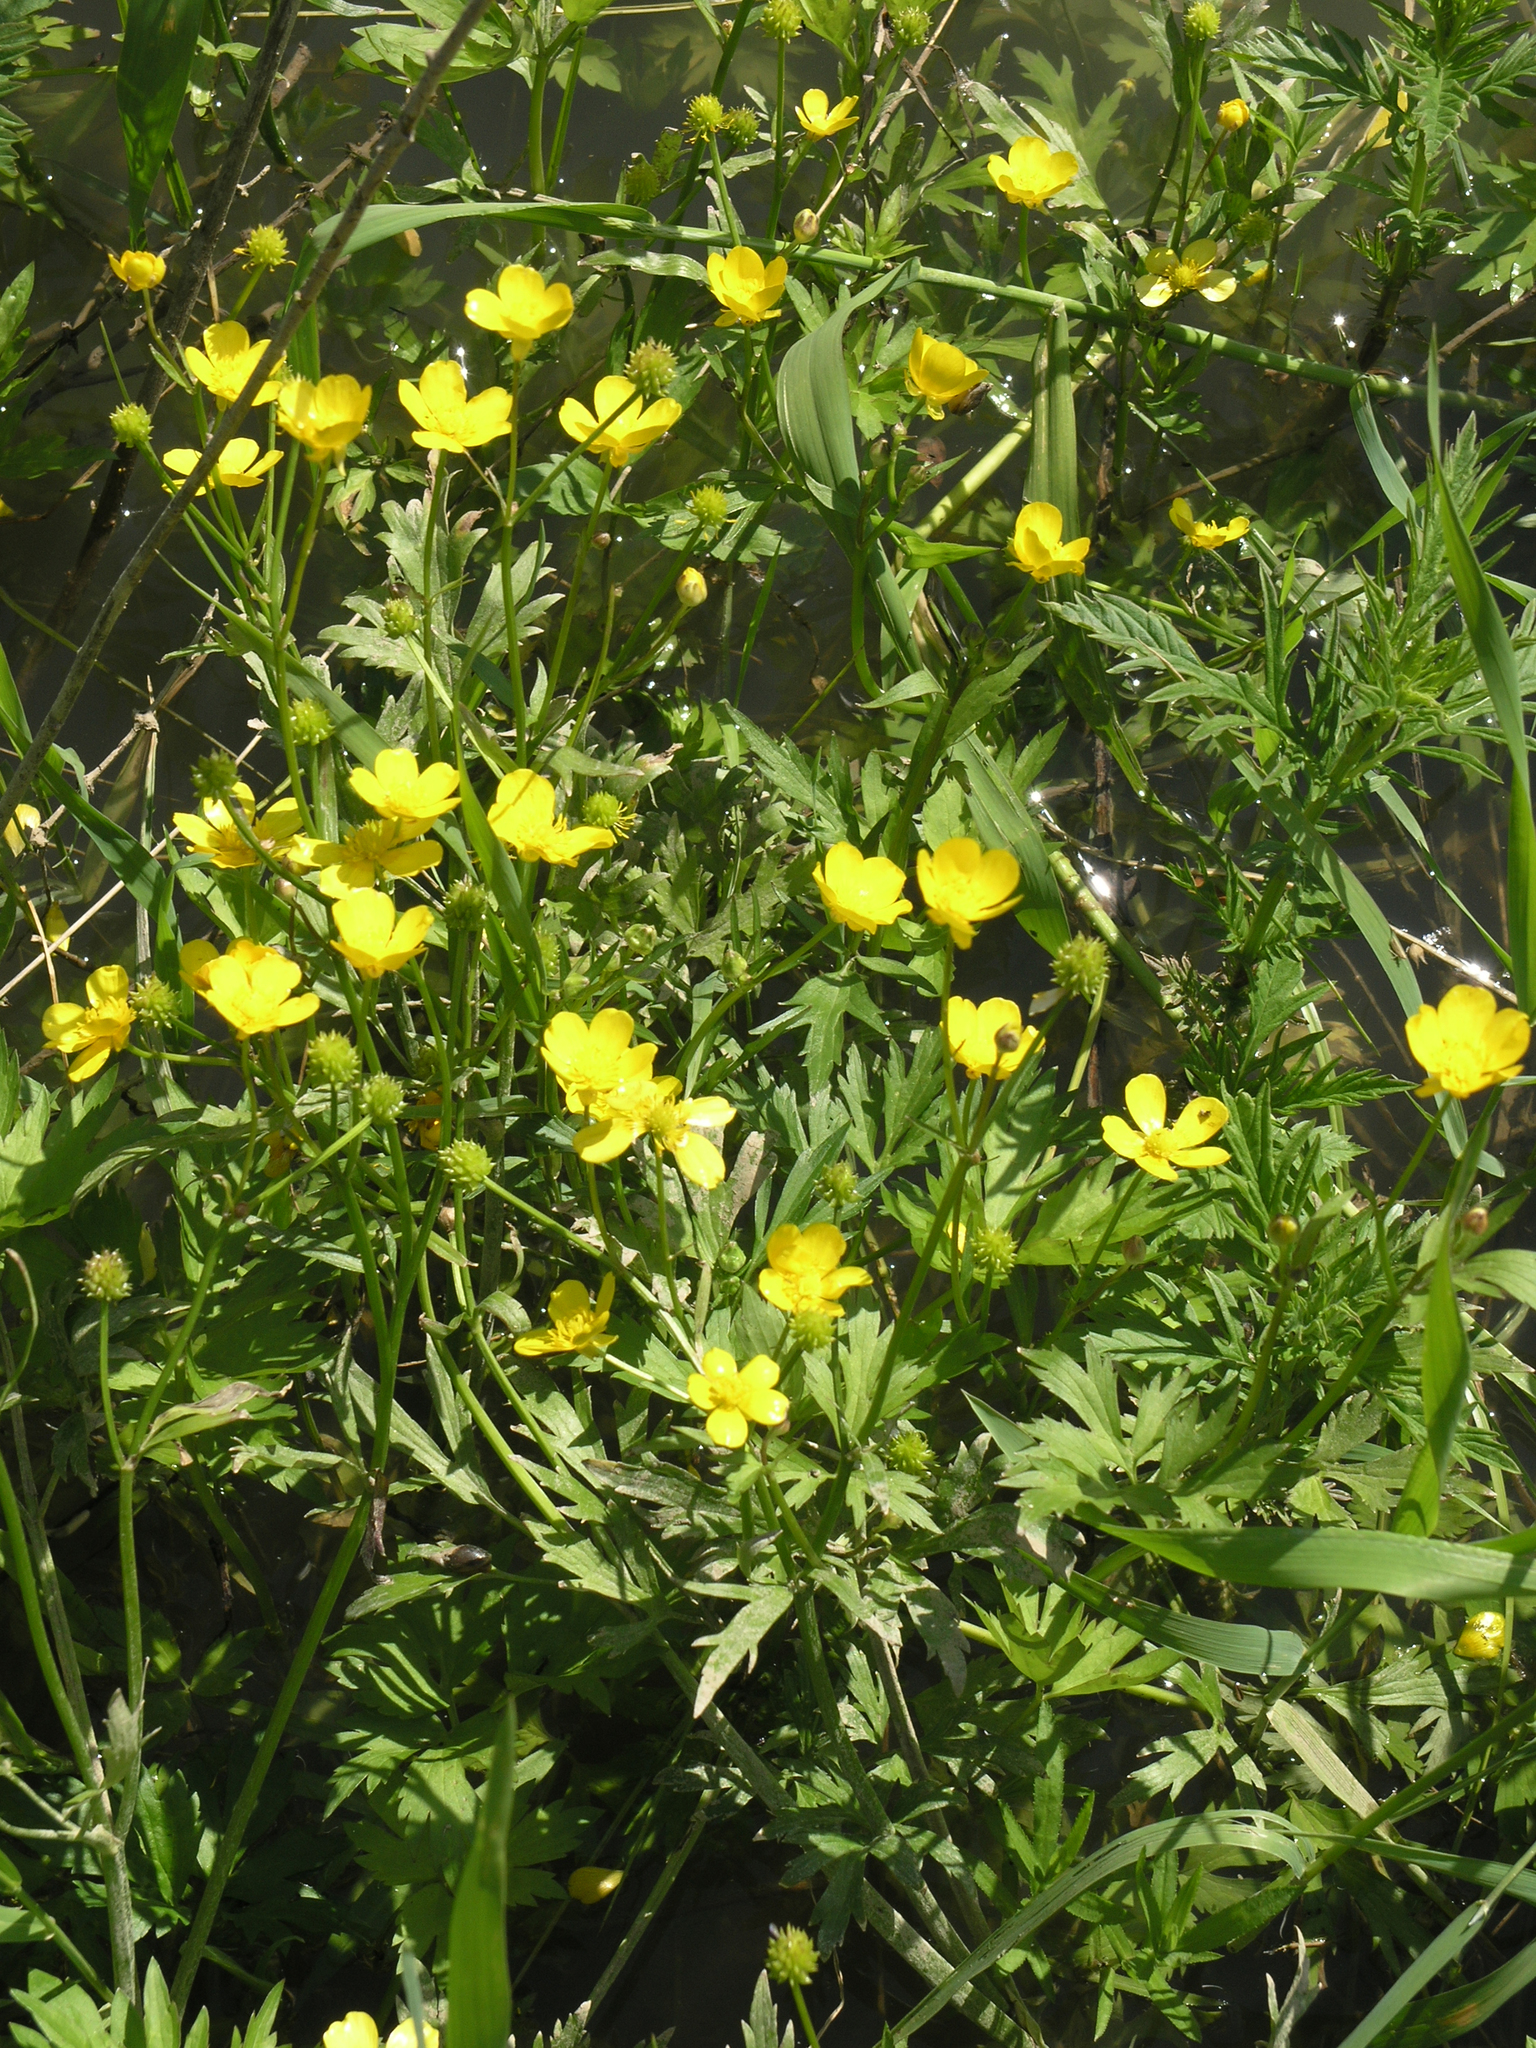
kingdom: Plantae
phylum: Tracheophyta
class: Magnoliopsida
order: Ranunculales
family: Ranunculaceae
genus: Ranunculus
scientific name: Ranunculus repens
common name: Creeping buttercup
